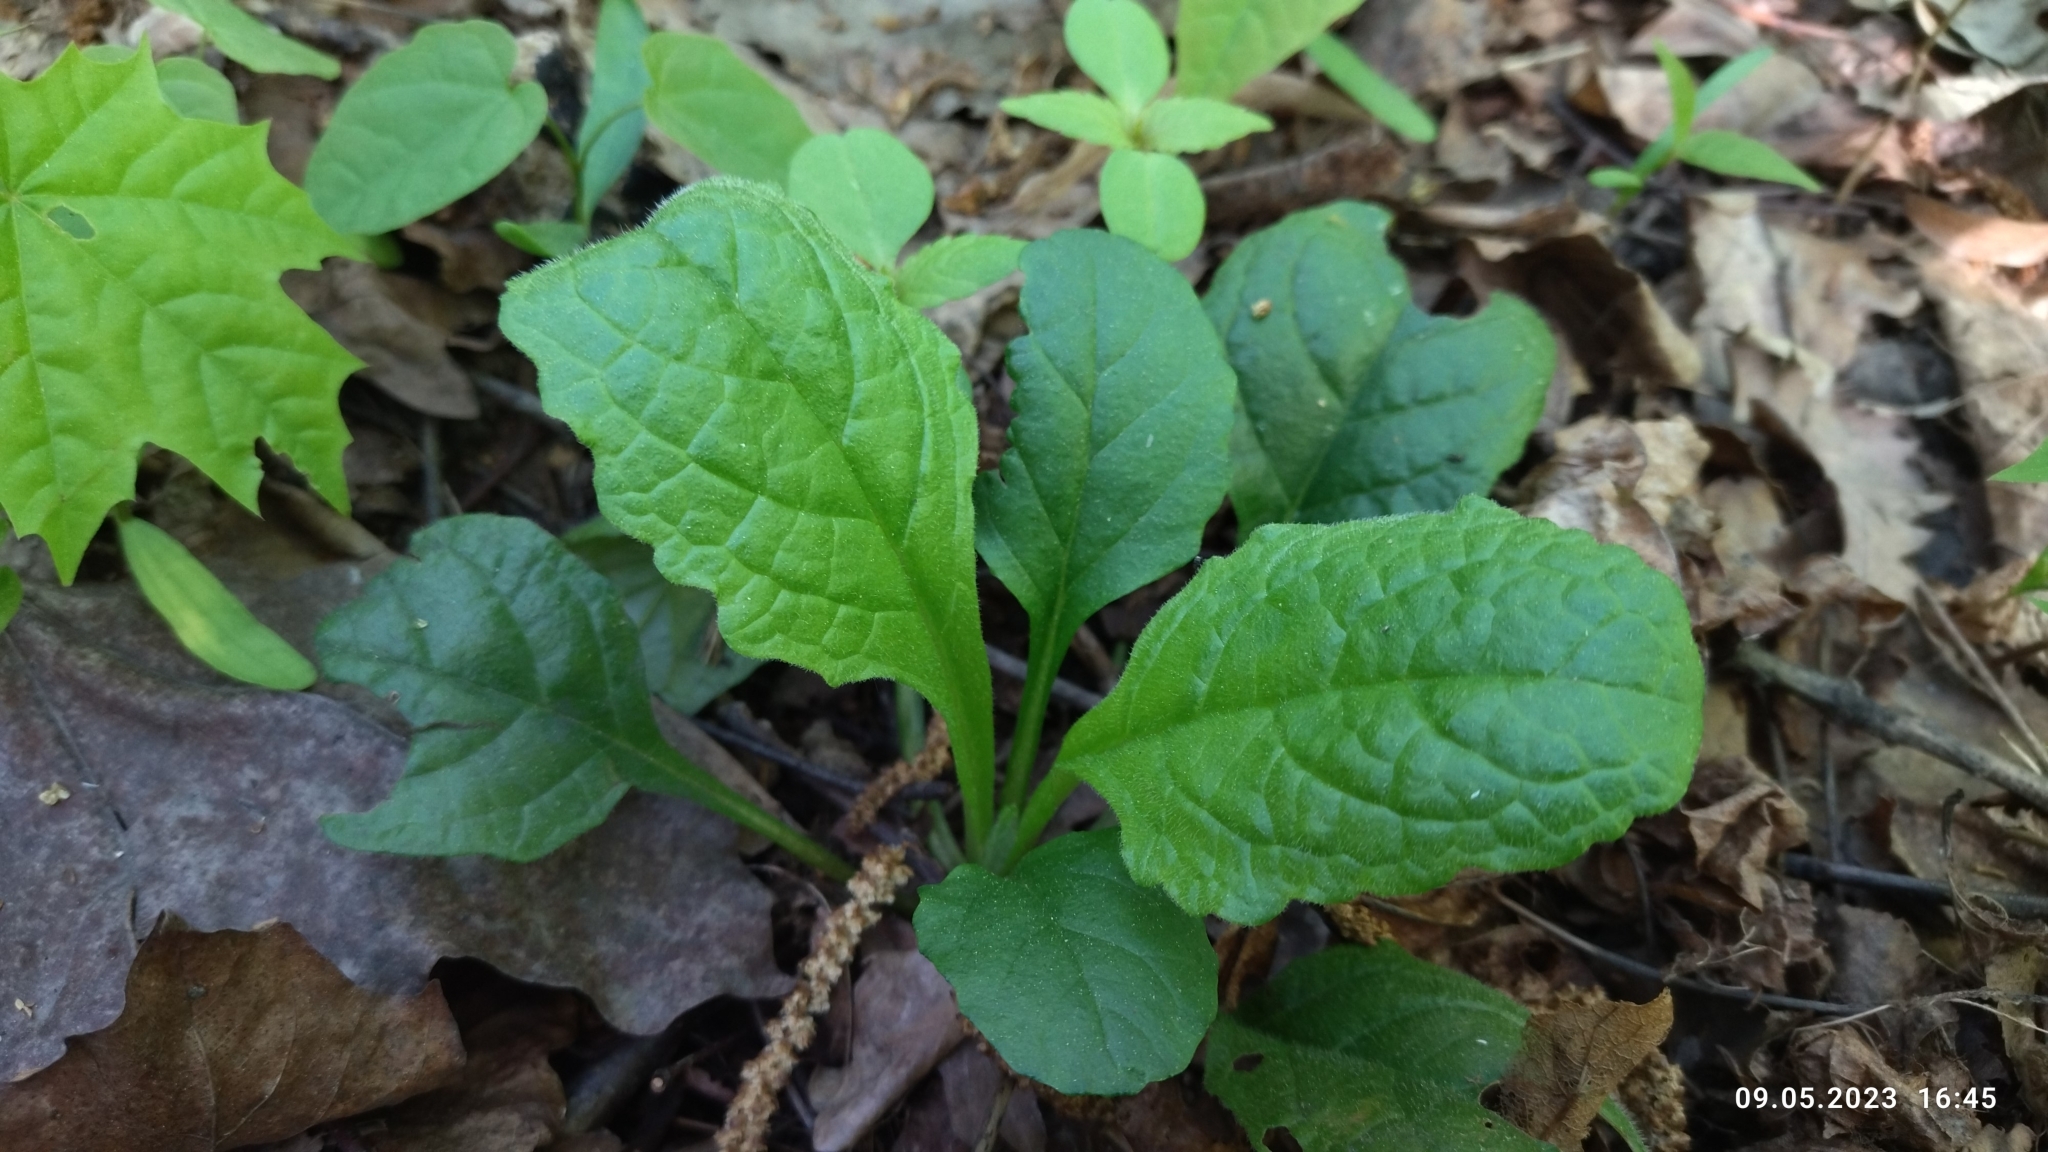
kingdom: Plantae
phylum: Tracheophyta
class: Magnoliopsida
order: Lamiales
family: Lamiaceae
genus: Ajuga
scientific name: Ajuga reptans
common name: Bugle
